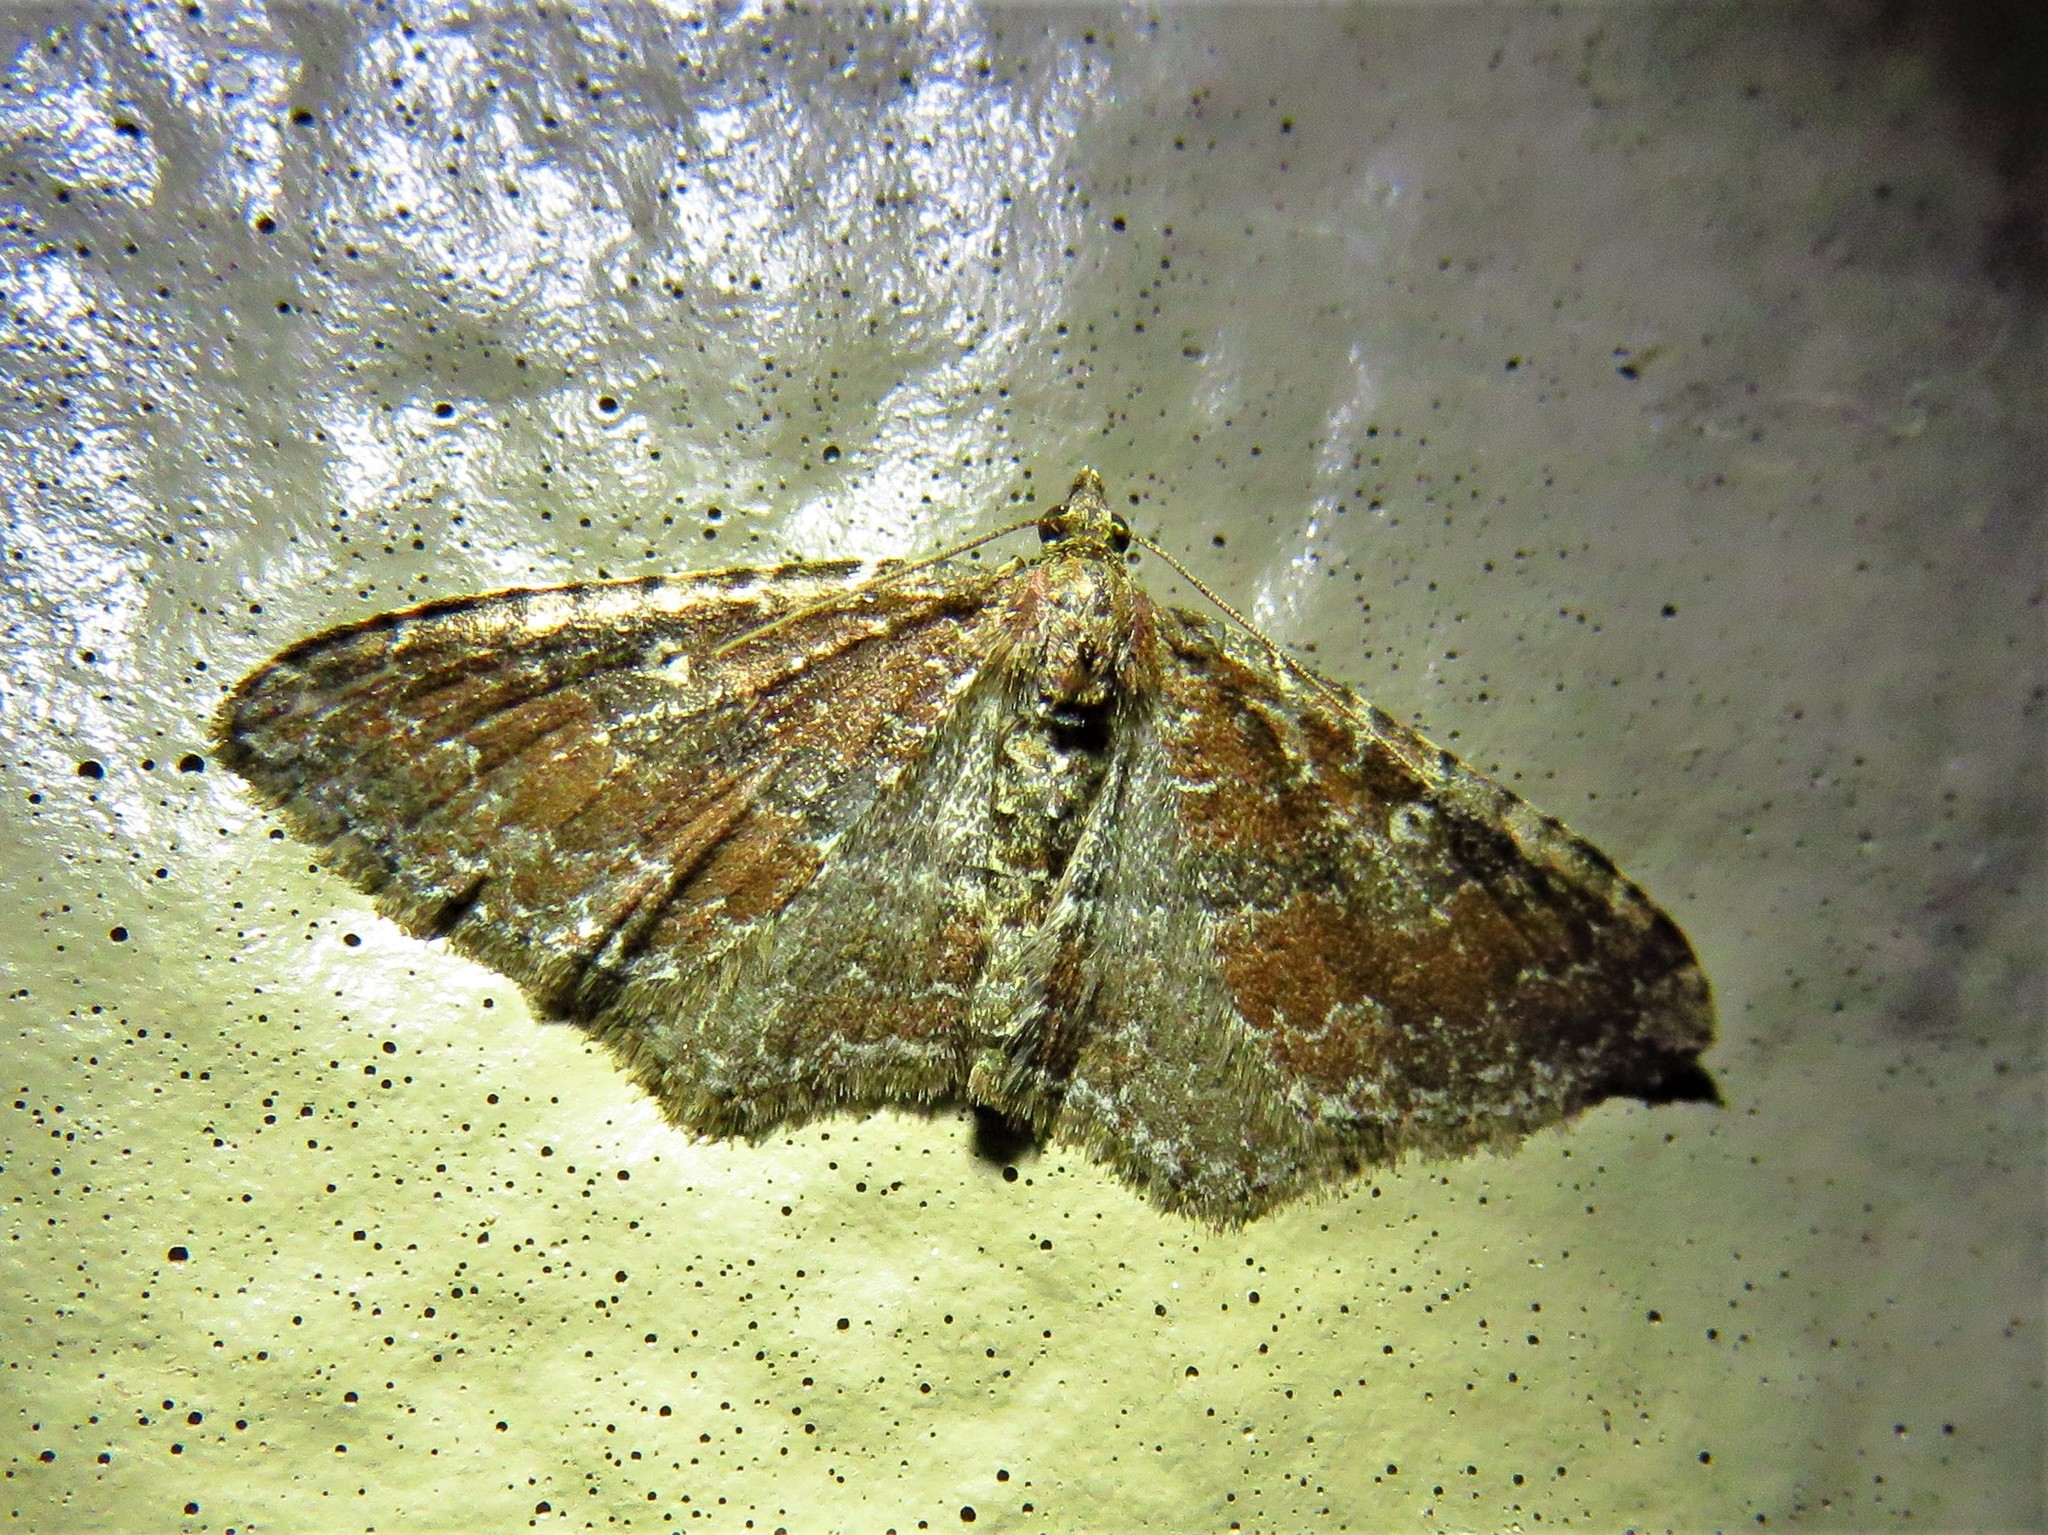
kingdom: Animalia
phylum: Arthropoda
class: Insecta
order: Lepidoptera
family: Geometridae
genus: Orthonama
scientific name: Orthonama obstipata
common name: The gem
